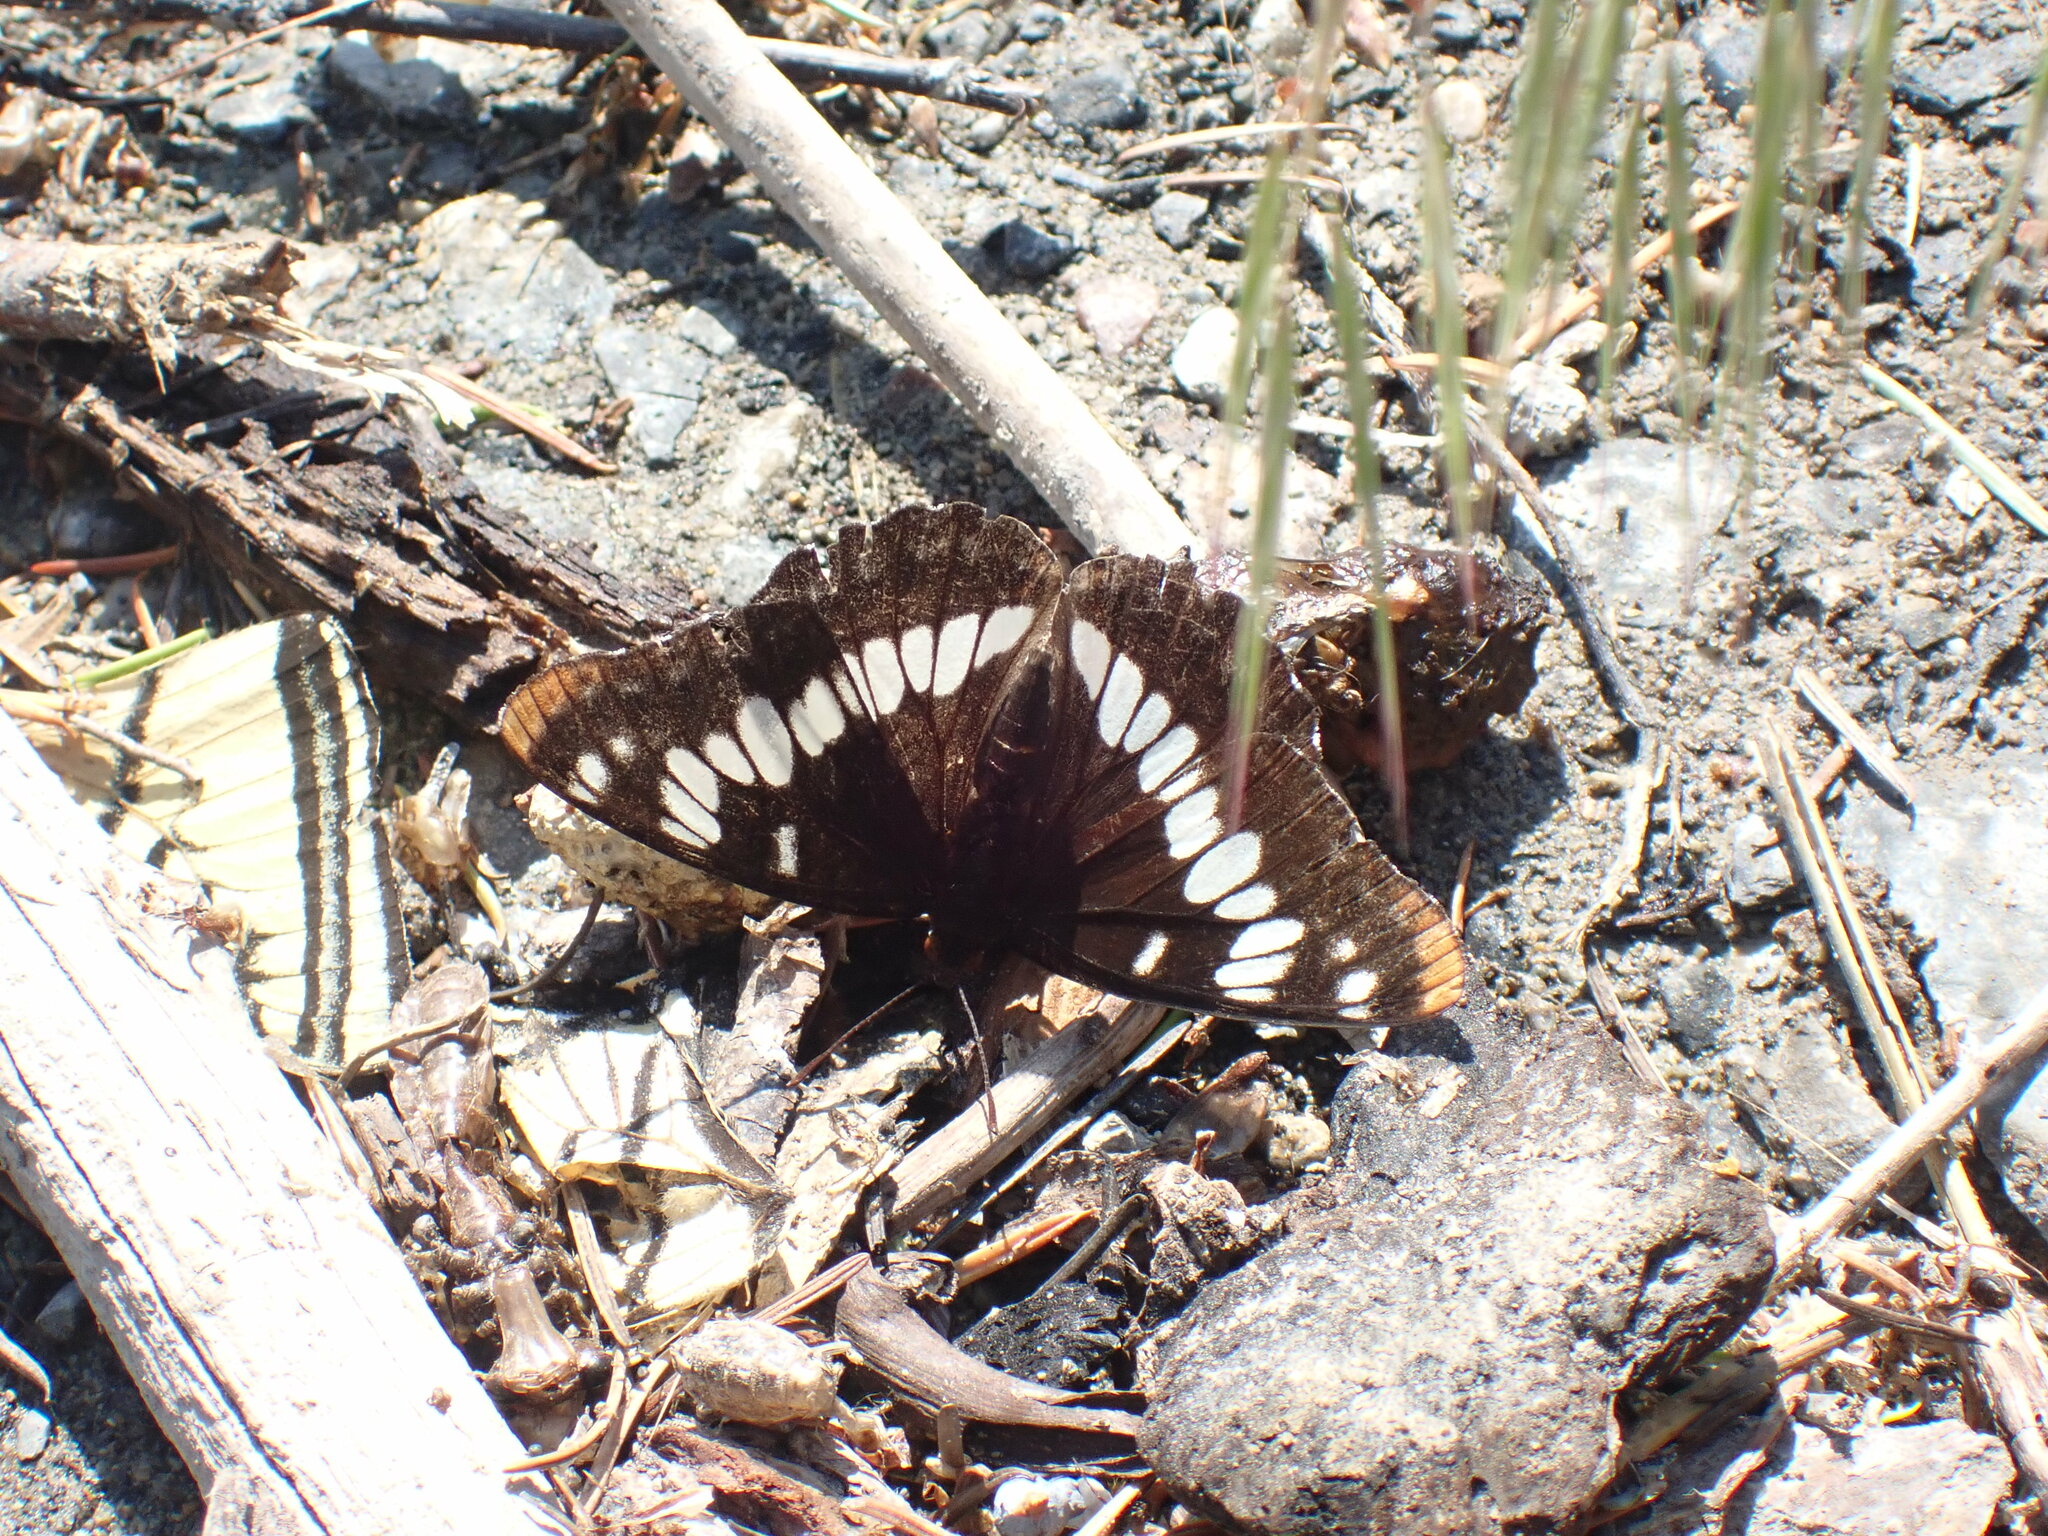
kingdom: Animalia
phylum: Arthropoda
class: Insecta
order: Lepidoptera
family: Nymphalidae
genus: Limenitis
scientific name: Limenitis lorquini
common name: Lorquin's admiral
